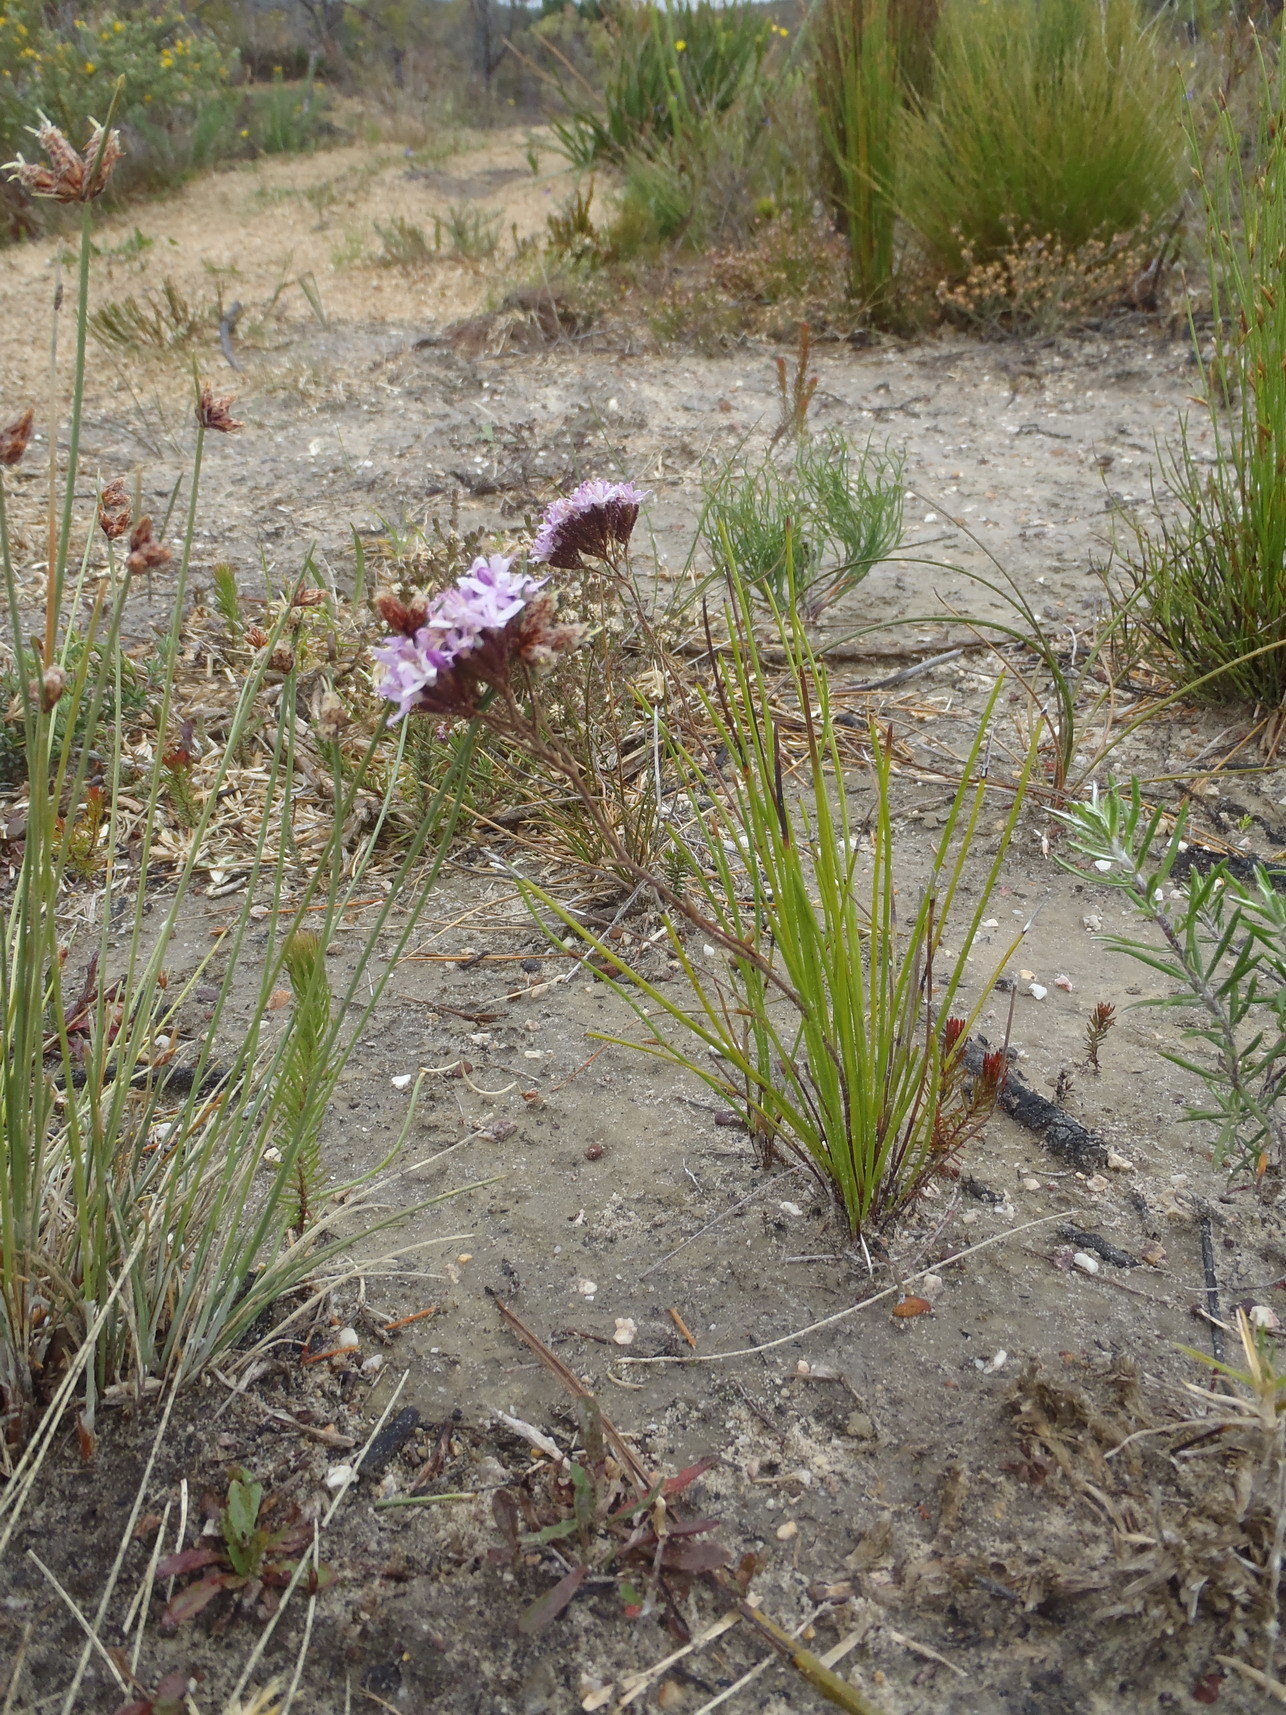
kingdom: Plantae
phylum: Tracheophyta
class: Magnoliopsida
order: Asterales
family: Asteraceae
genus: Corymbium
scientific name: Corymbium africanum
